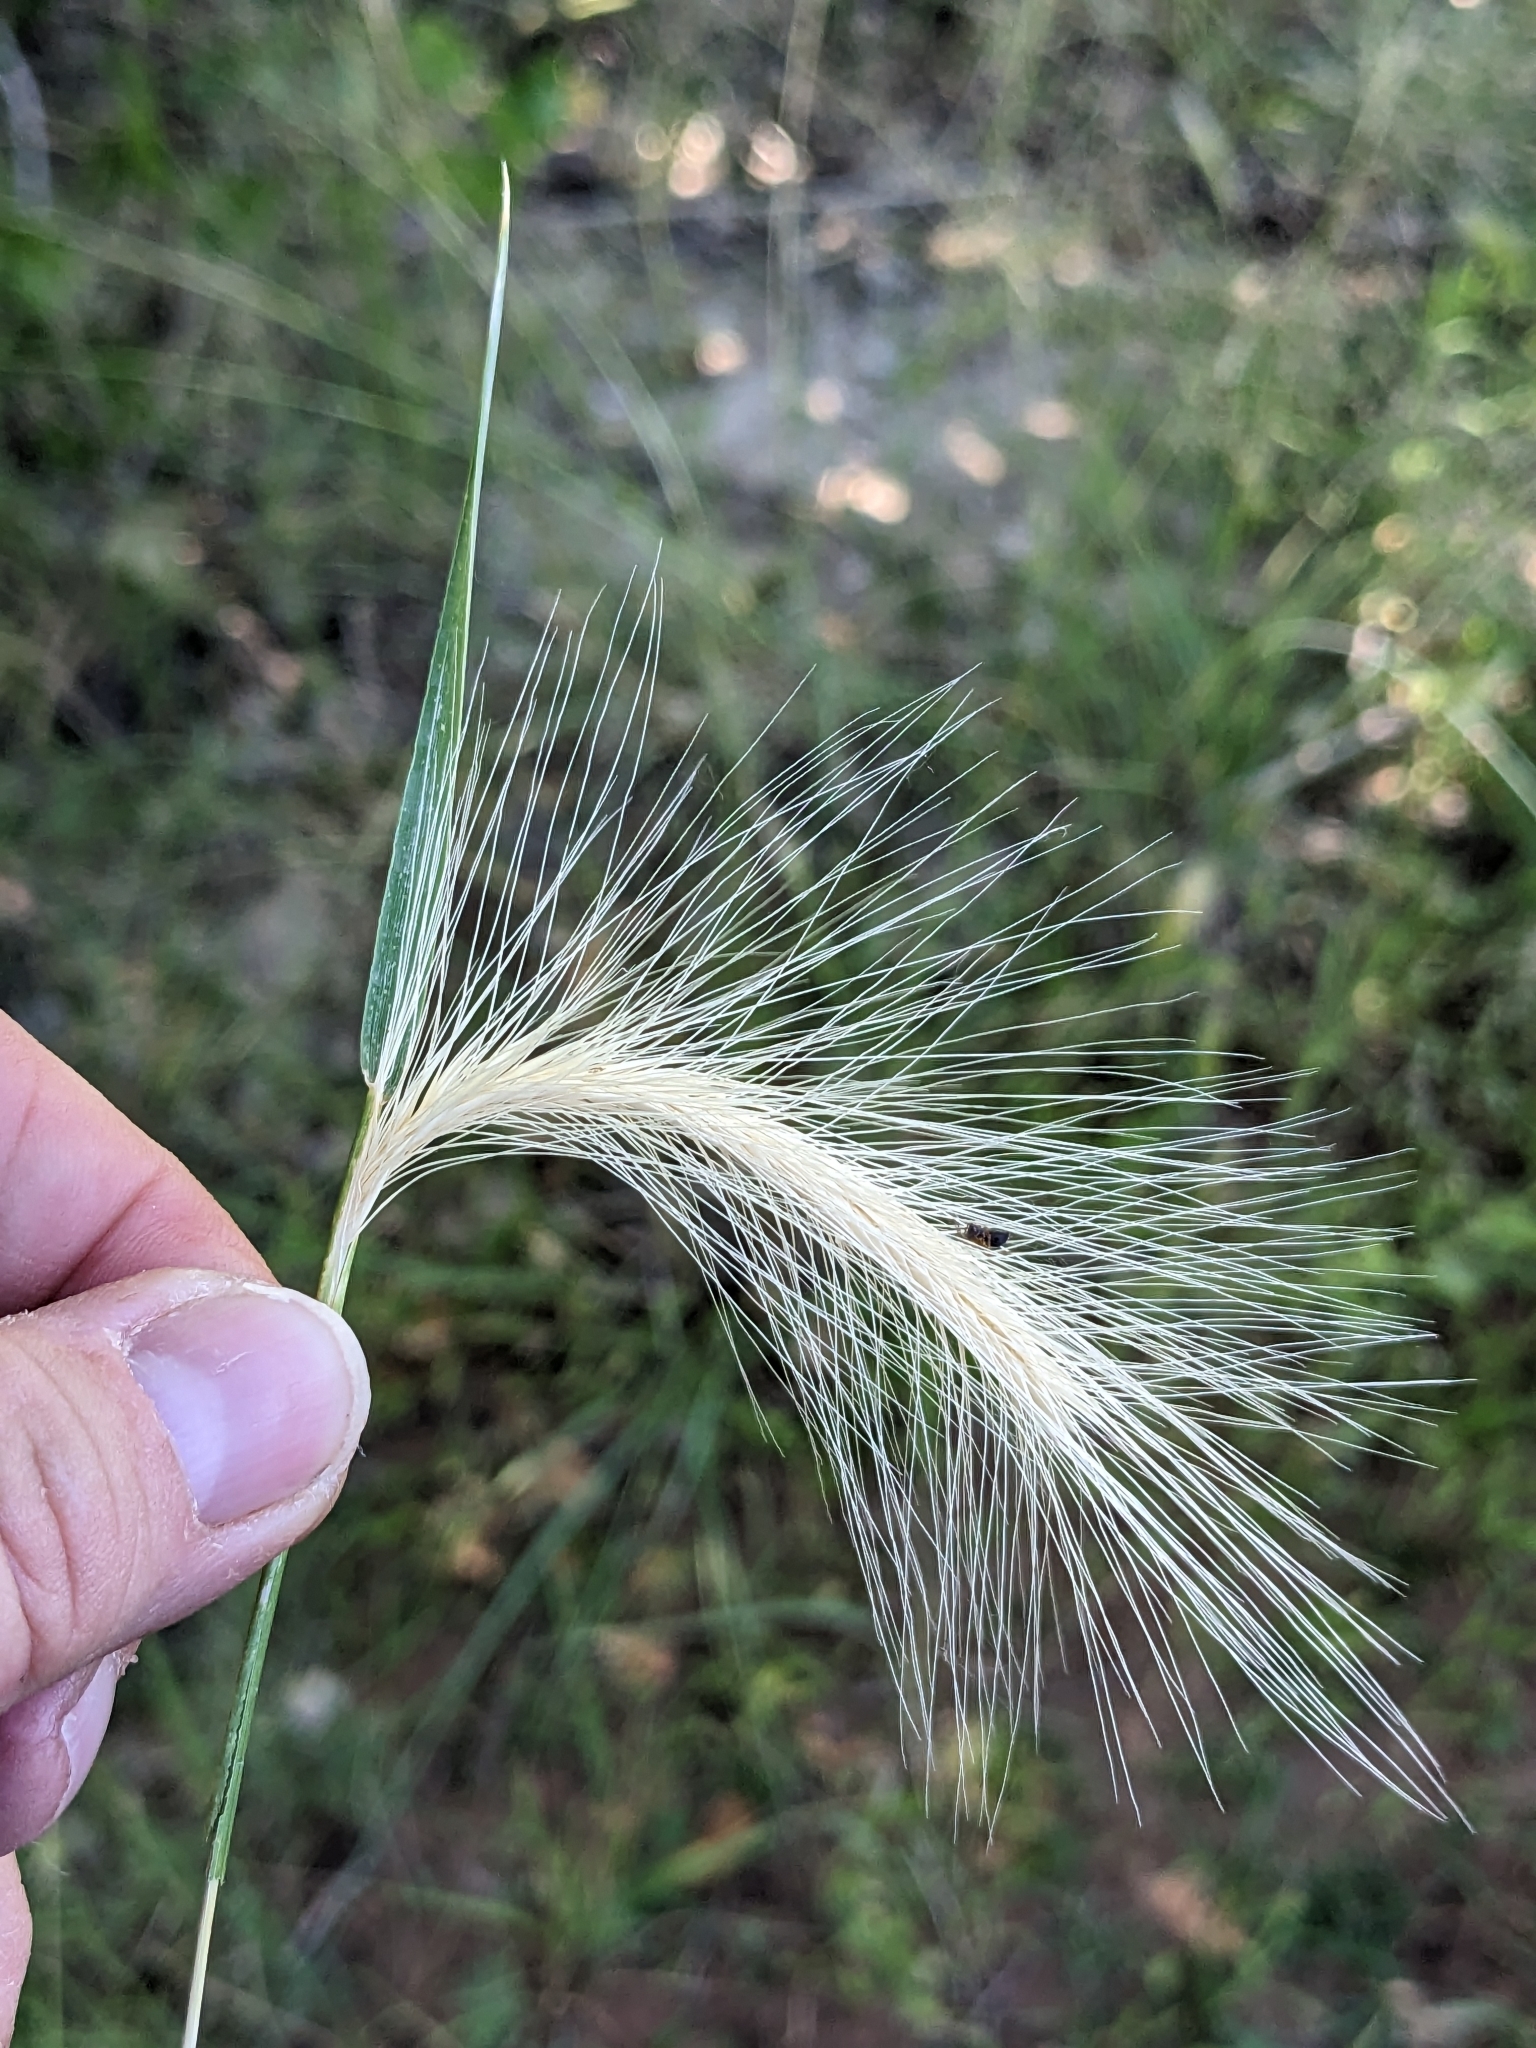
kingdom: Plantae
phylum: Tracheophyta
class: Liliopsida
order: Poales
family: Poaceae
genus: Hordeum
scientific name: Hordeum jubatum
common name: Foxtail barley
